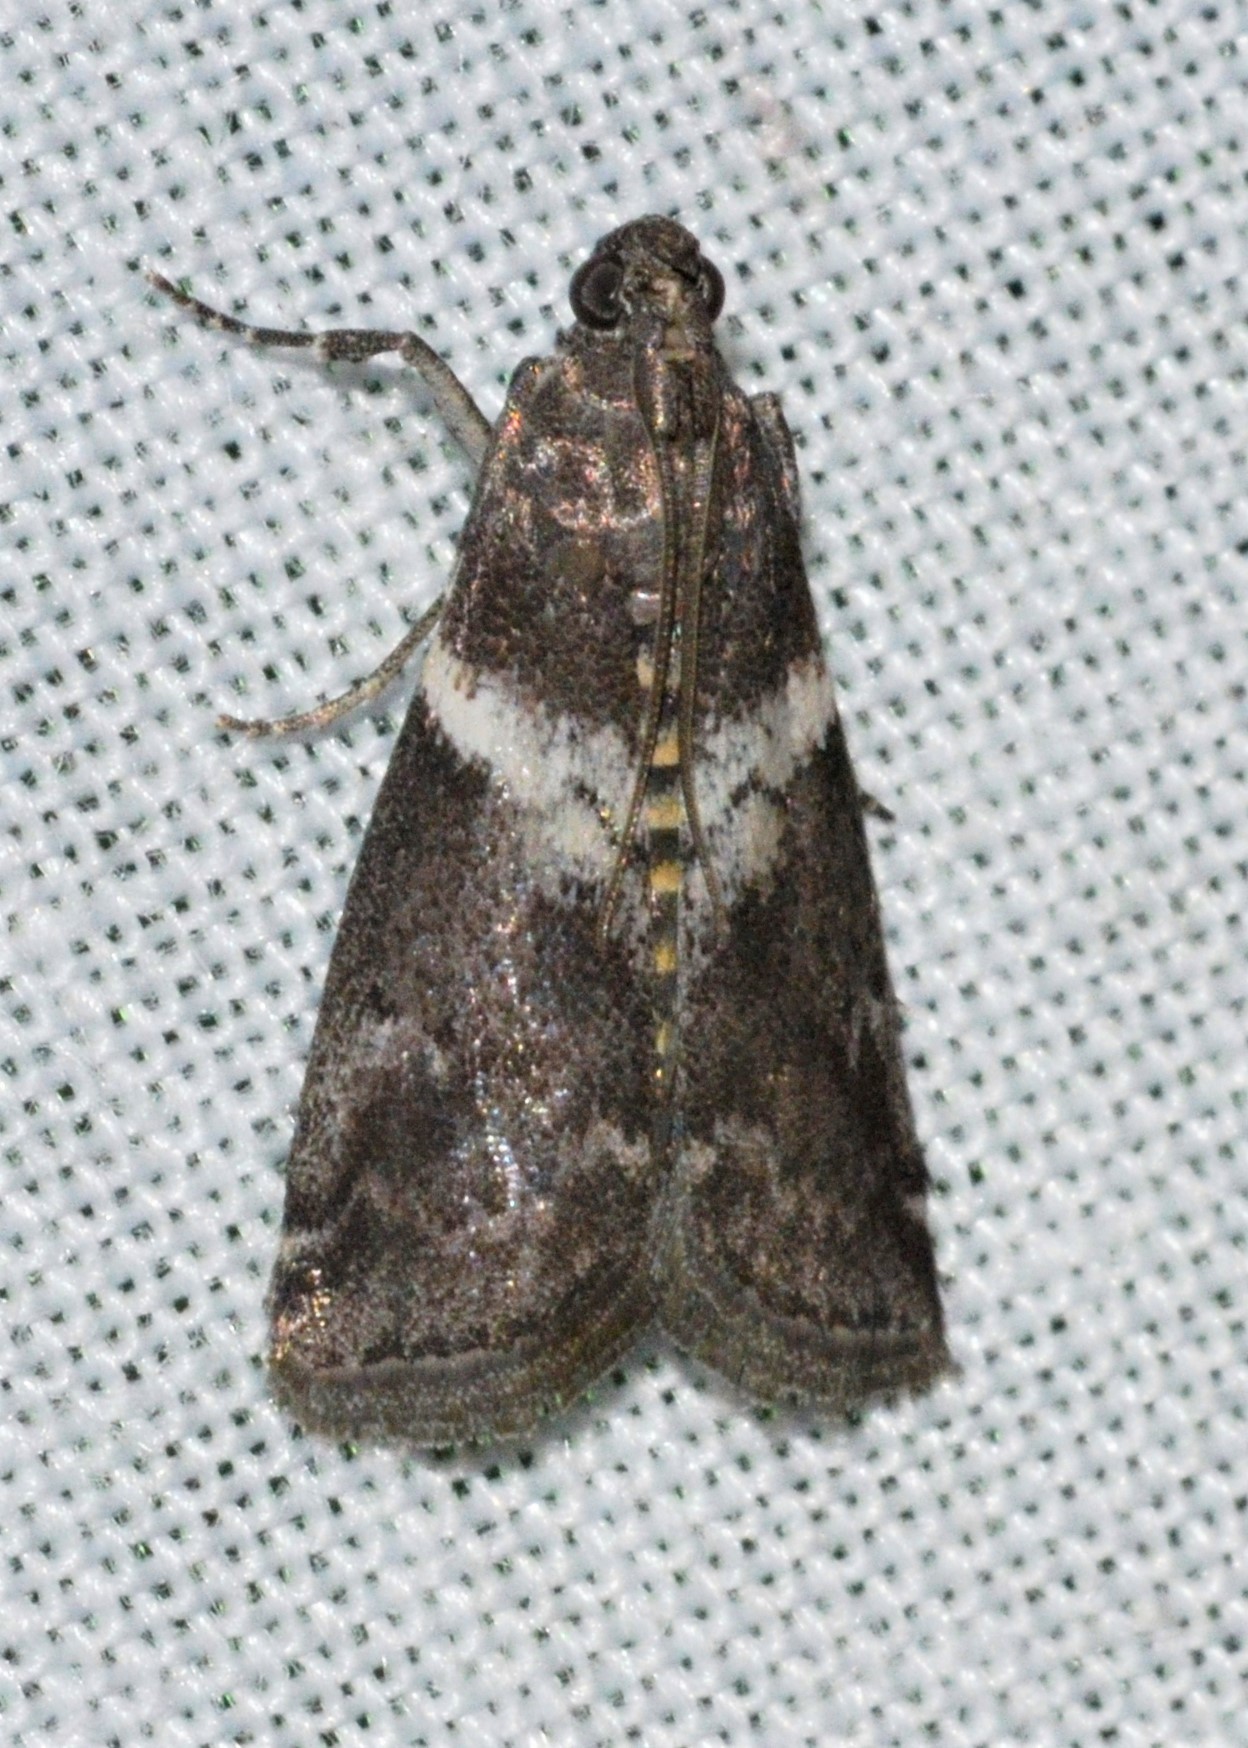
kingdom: Animalia
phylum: Arthropoda
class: Insecta
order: Lepidoptera
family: Pyralidae
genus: Salebriaria
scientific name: Salebriaria fasciata
